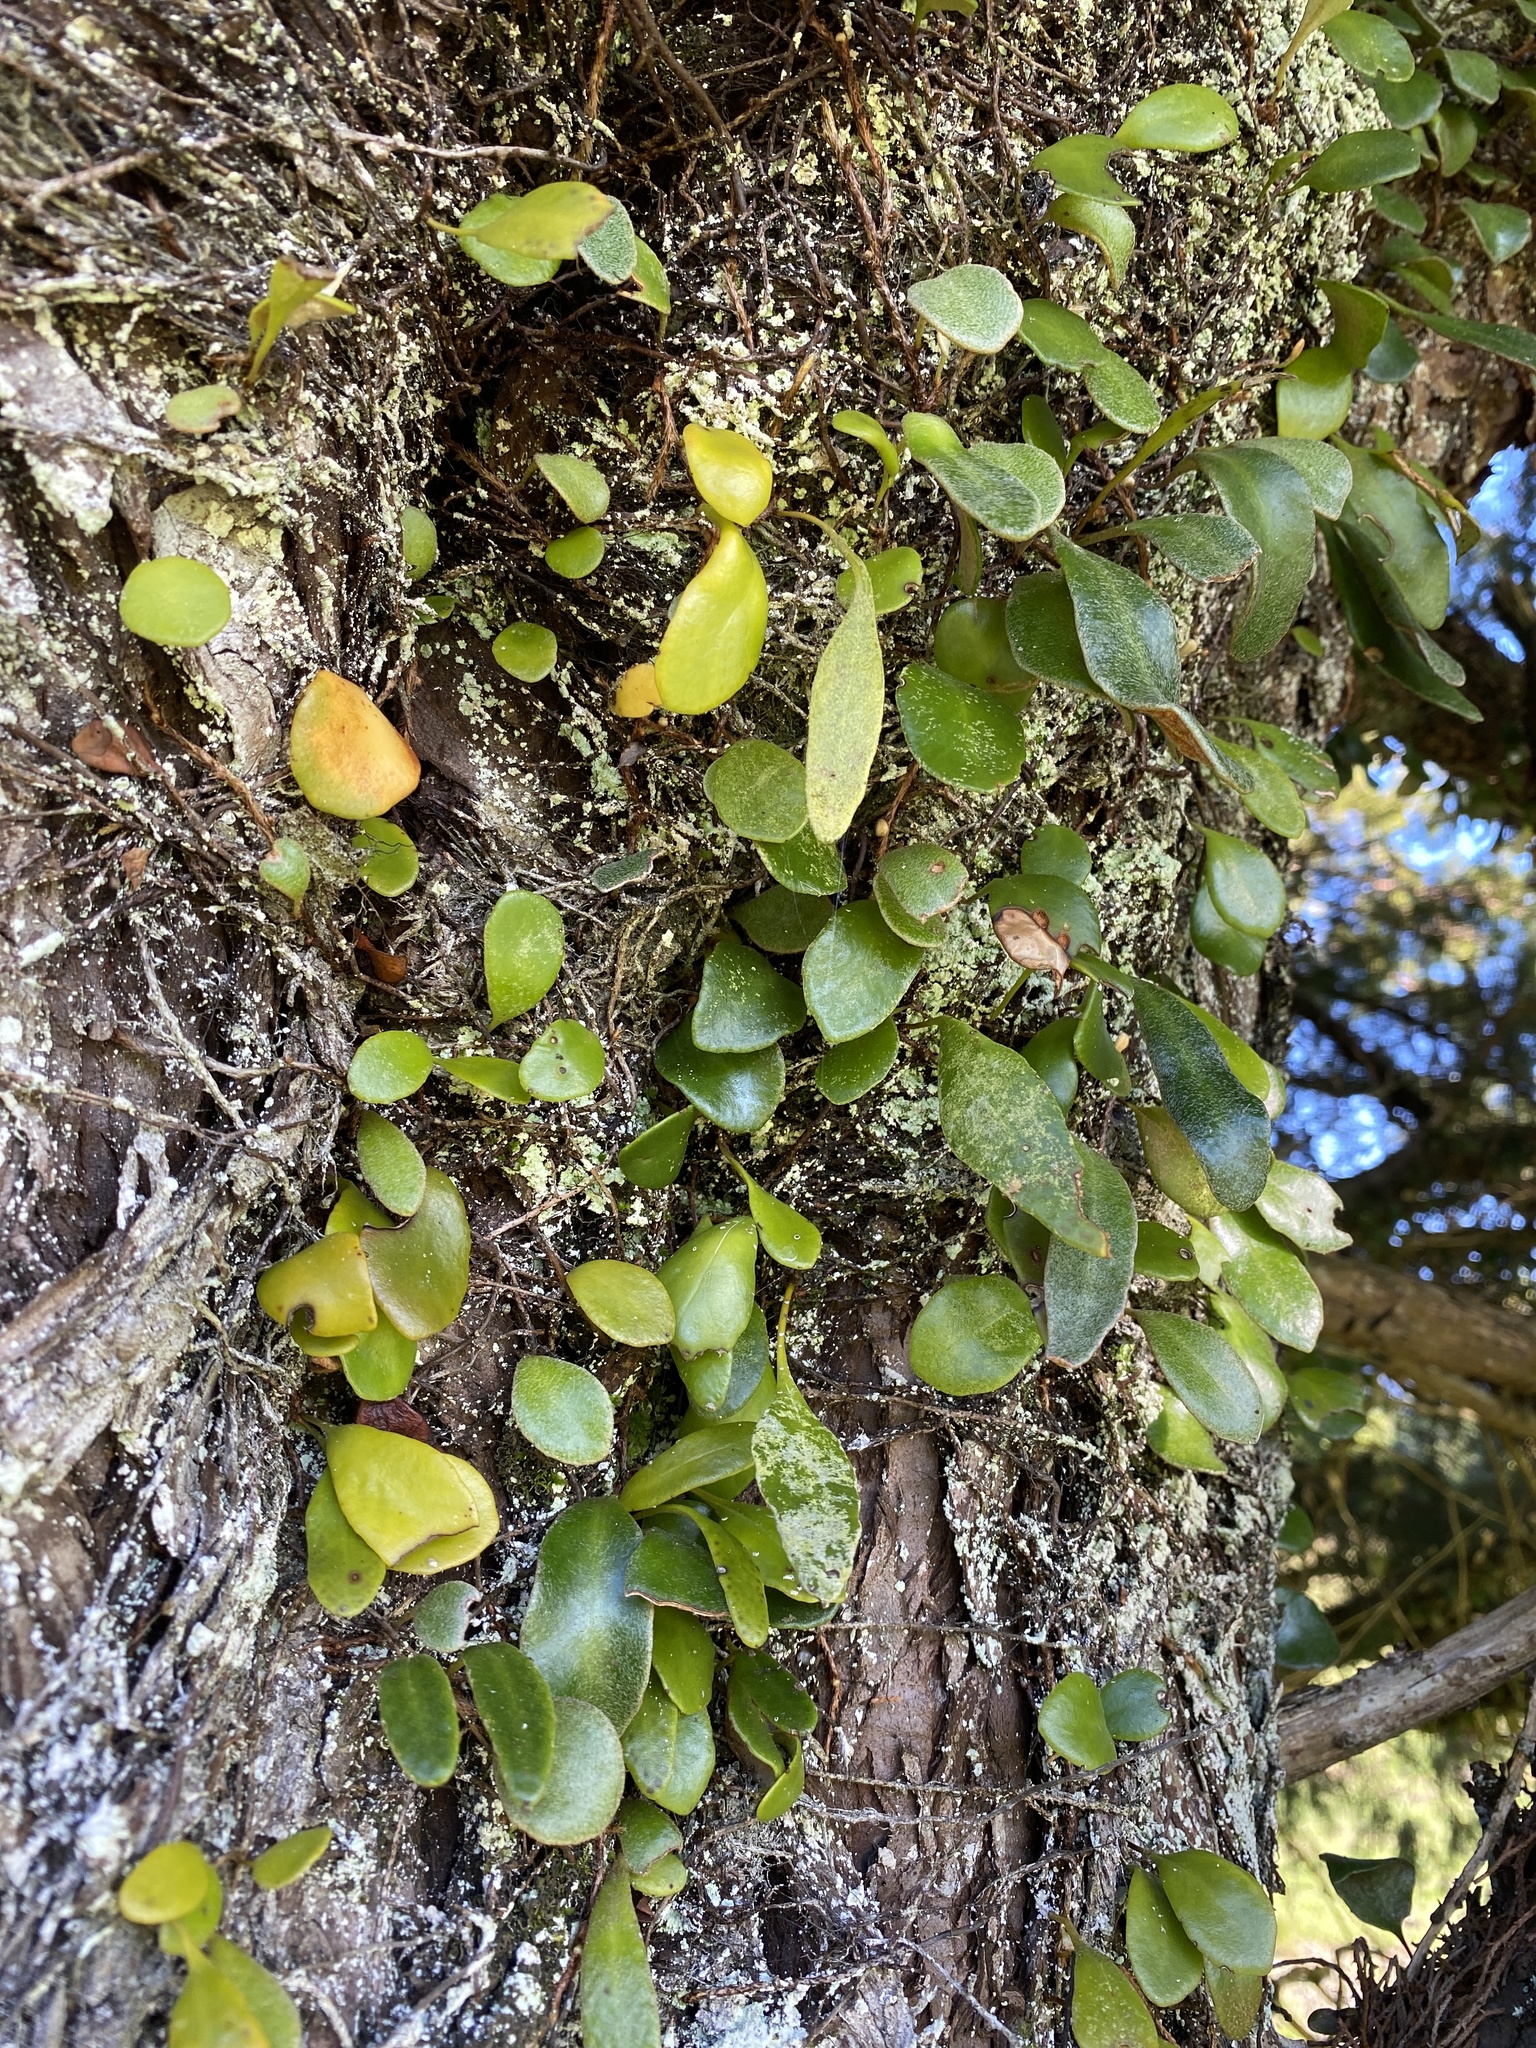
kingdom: Plantae
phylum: Tracheophyta
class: Polypodiopsida
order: Polypodiales
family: Polypodiaceae
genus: Pyrrosia
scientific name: Pyrrosia eleagnifolia
